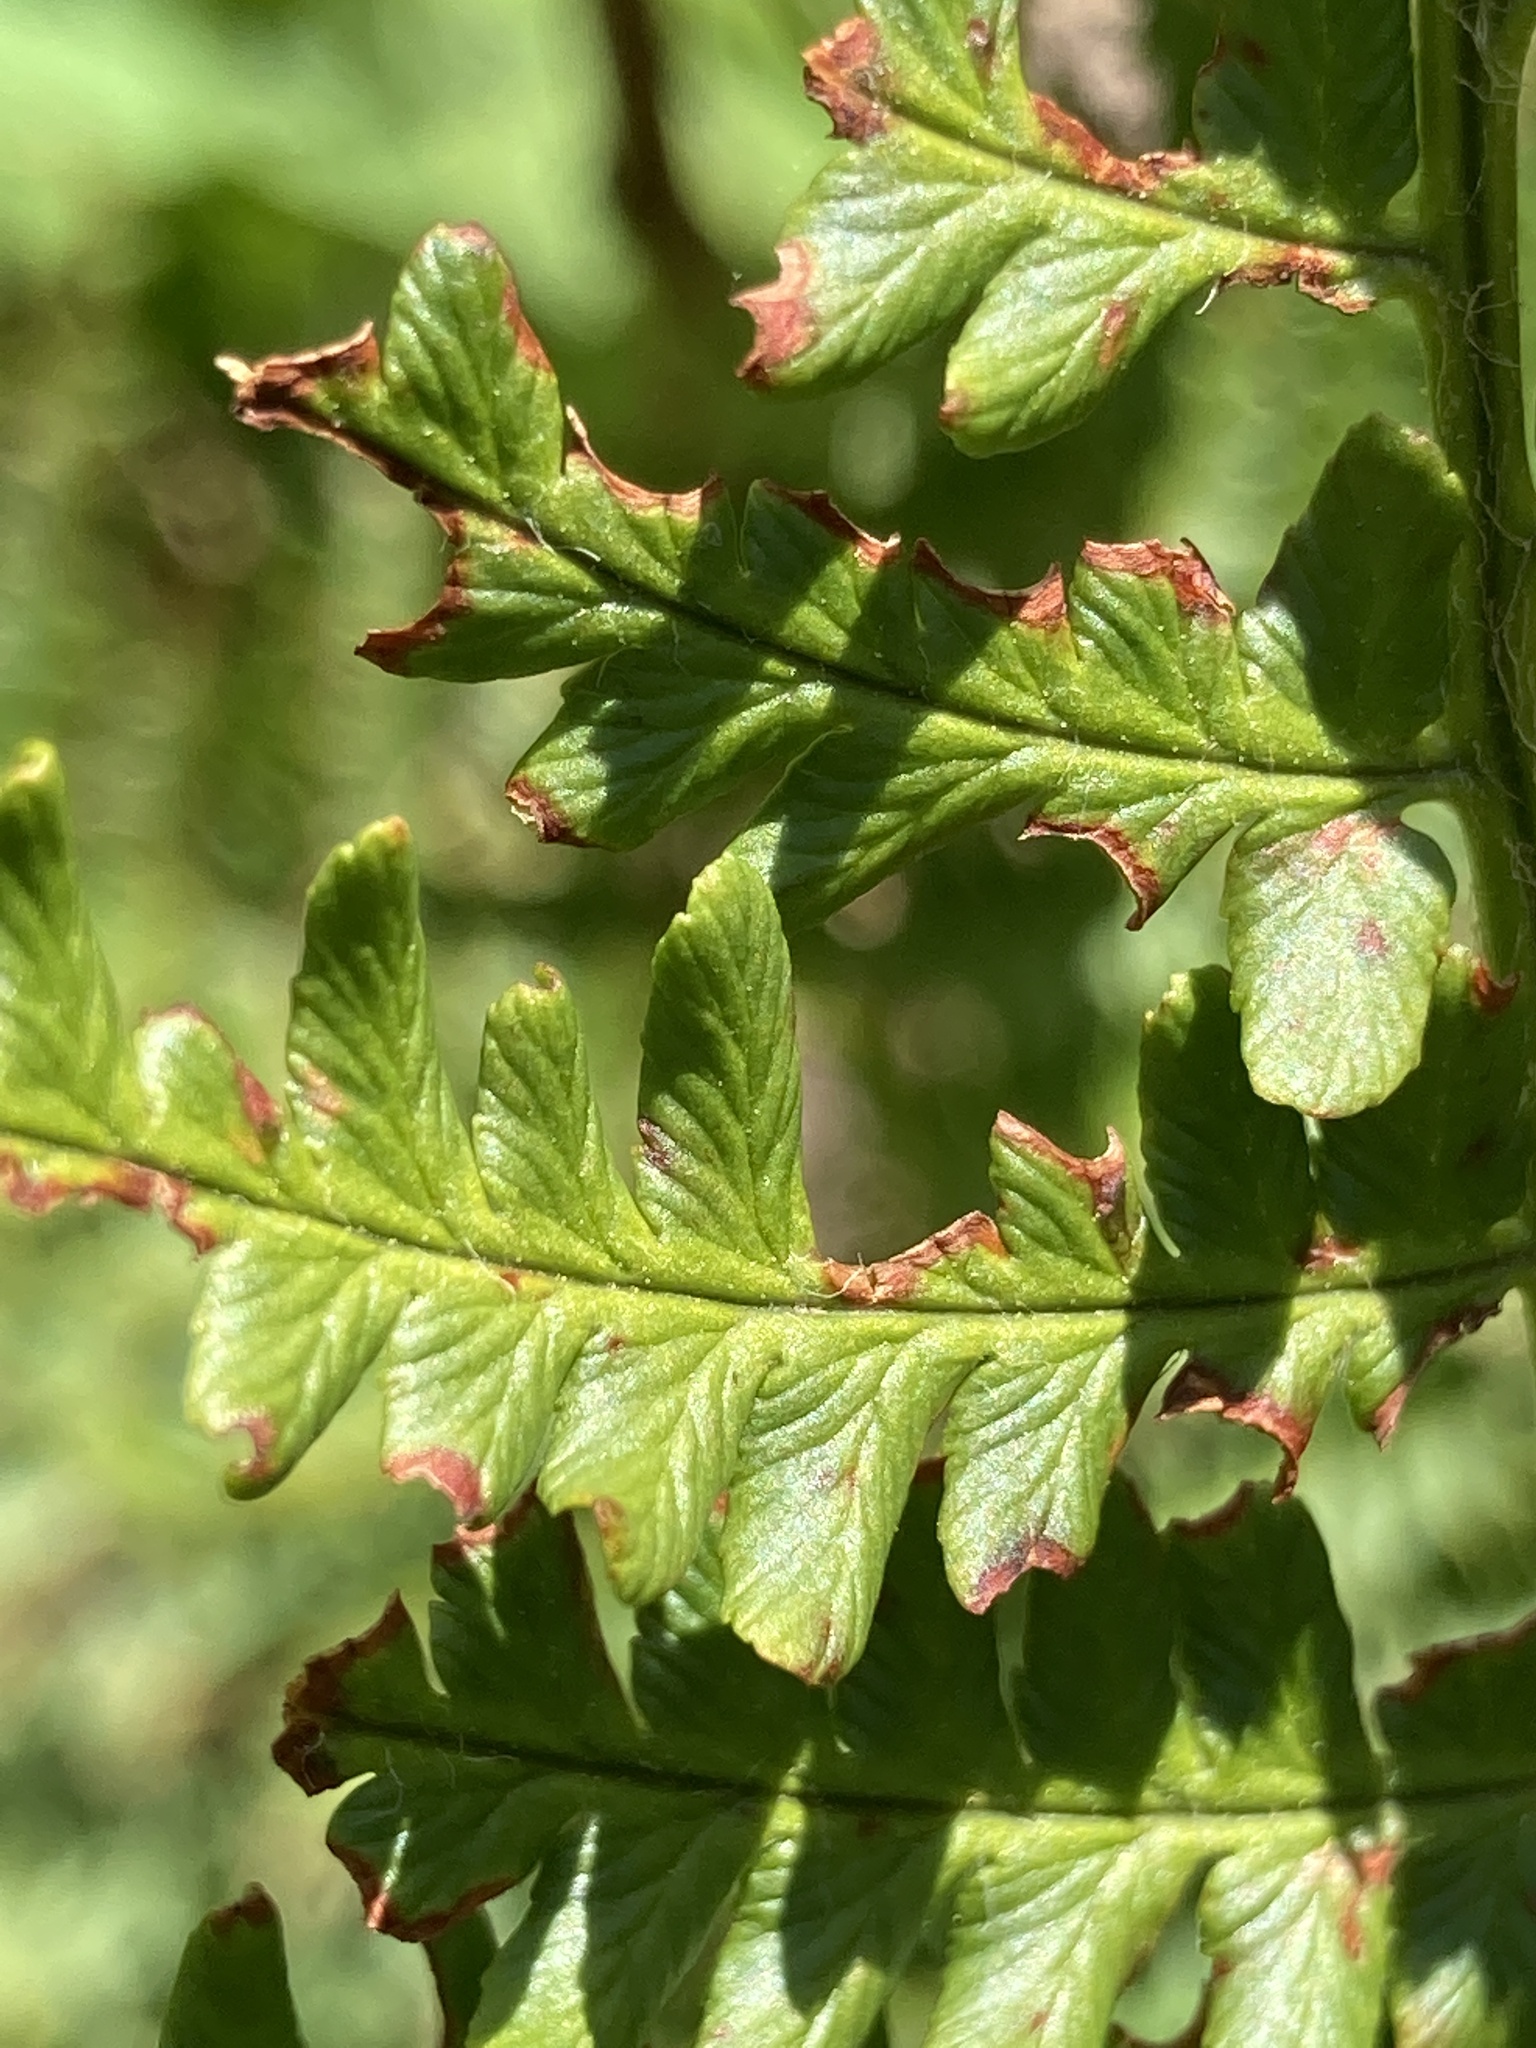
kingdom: Plantae
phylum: Tracheophyta
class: Polypodiopsida
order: Polypodiales
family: Dryopteridaceae
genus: Dryopteris
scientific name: Dryopteris filix-mas
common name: Male fern
